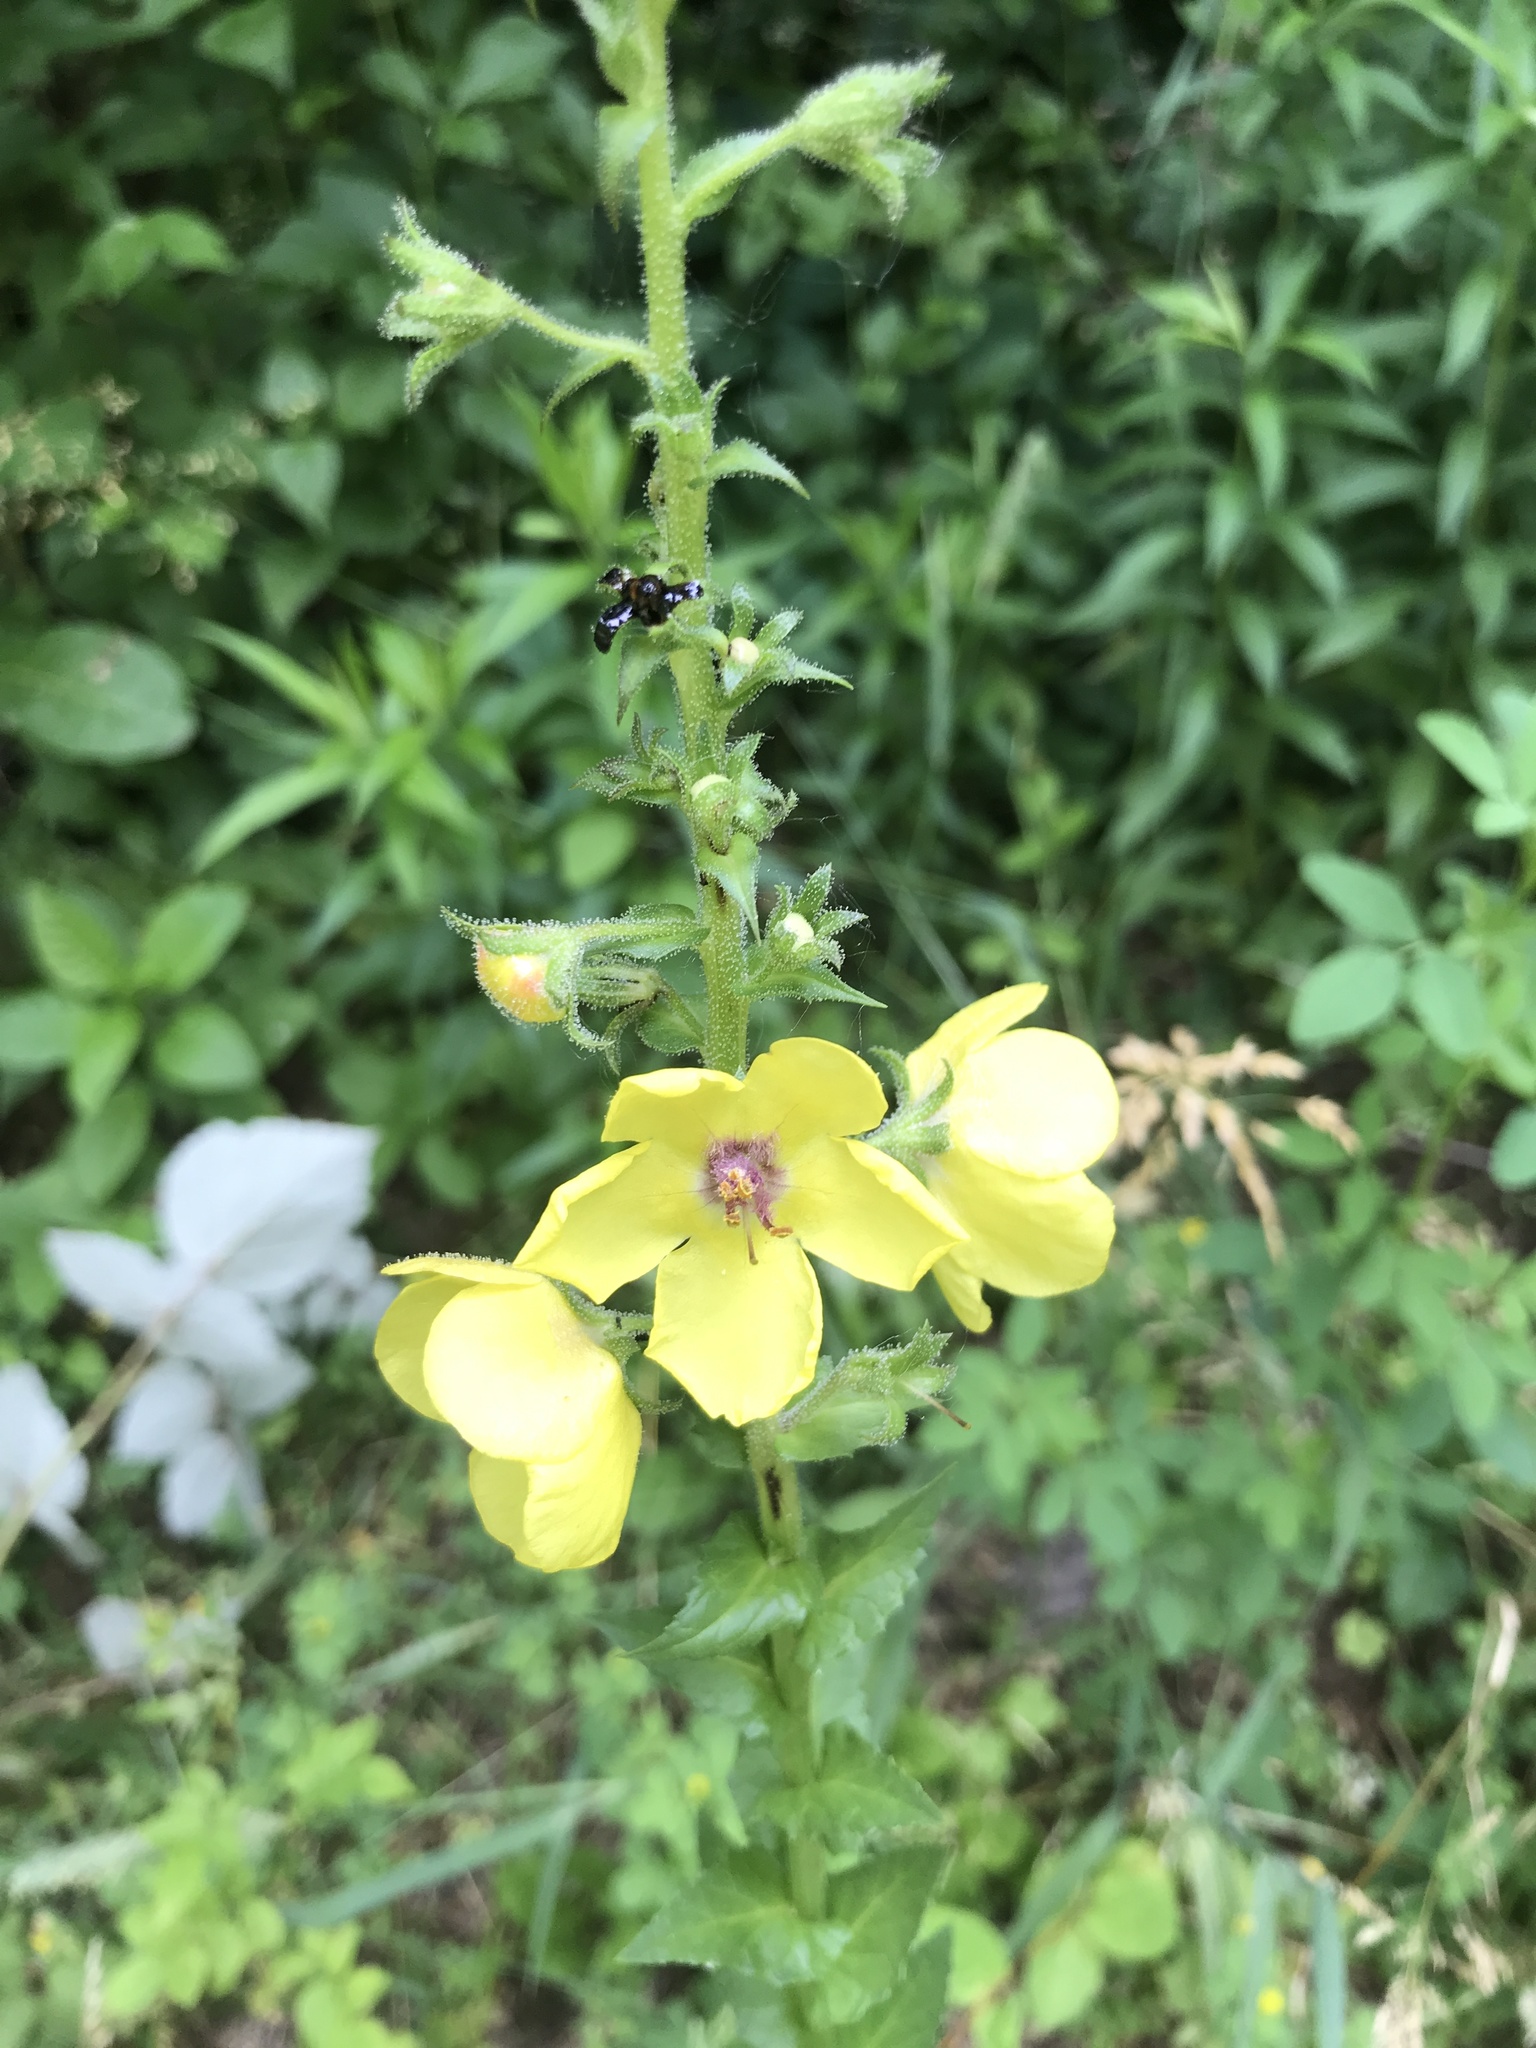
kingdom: Plantae
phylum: Tracheophyta
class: Magnoliopsida
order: Lamiales
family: Scrophulariaceae
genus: Verbascum
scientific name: Verbascum blattaria
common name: Moth mullein
